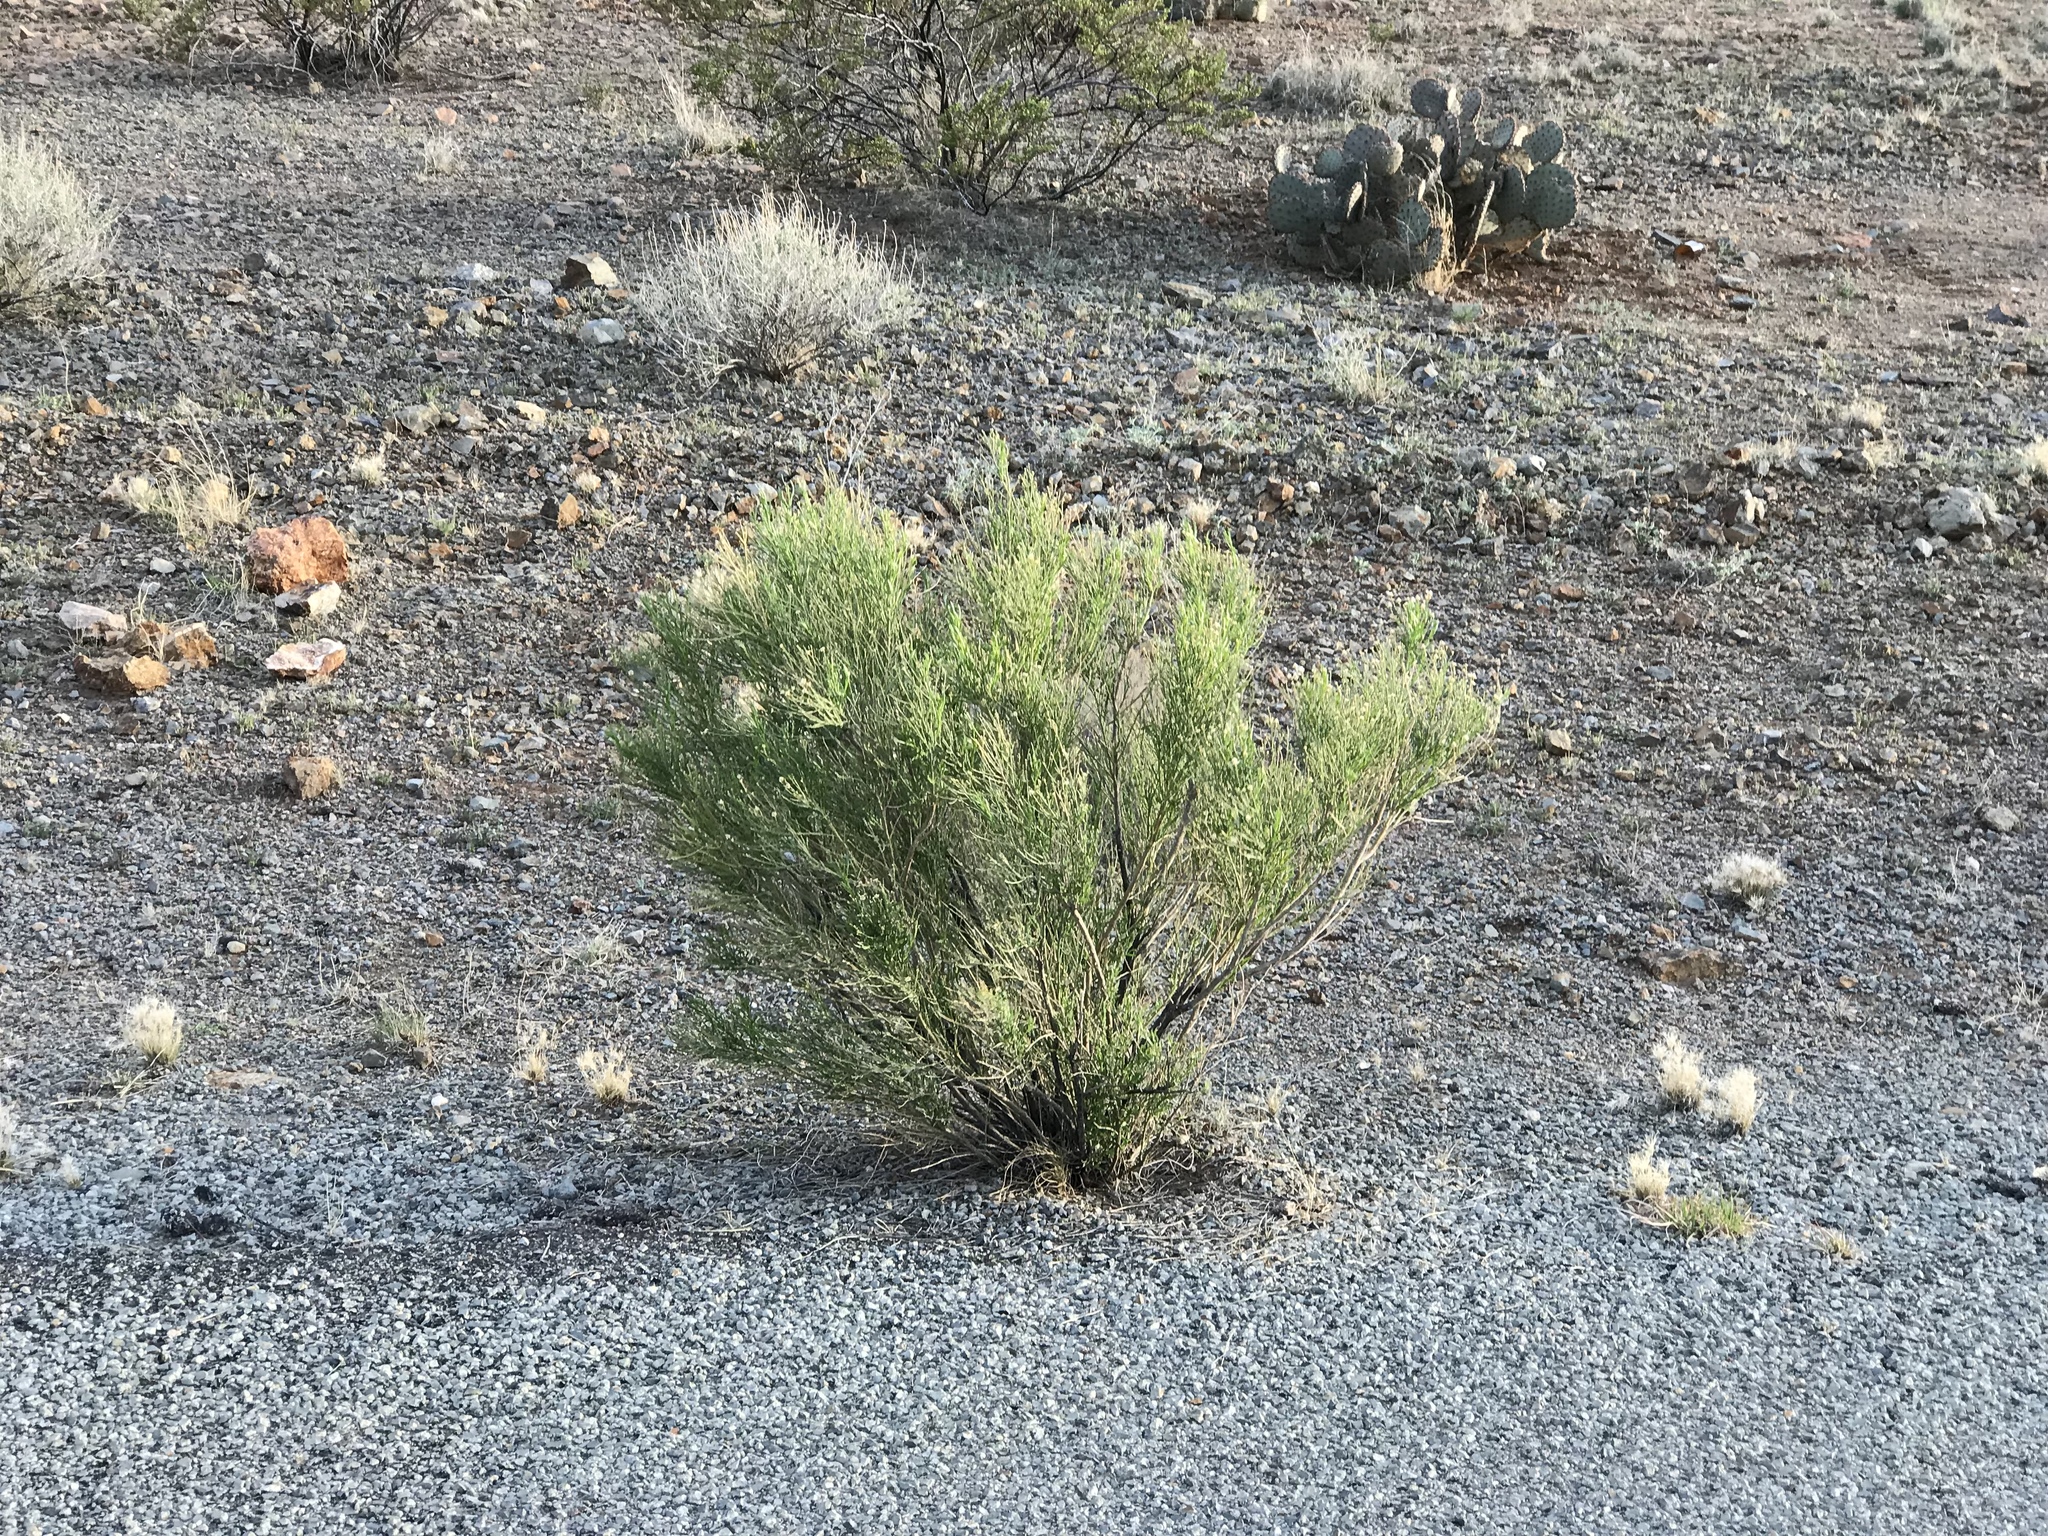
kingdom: Plantae
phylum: Tracheophyta
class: Magnoliopsida
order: Asterales
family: Asteraceae
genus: Baccharis
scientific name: Baccharis sarothroides
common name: Desert-broom
